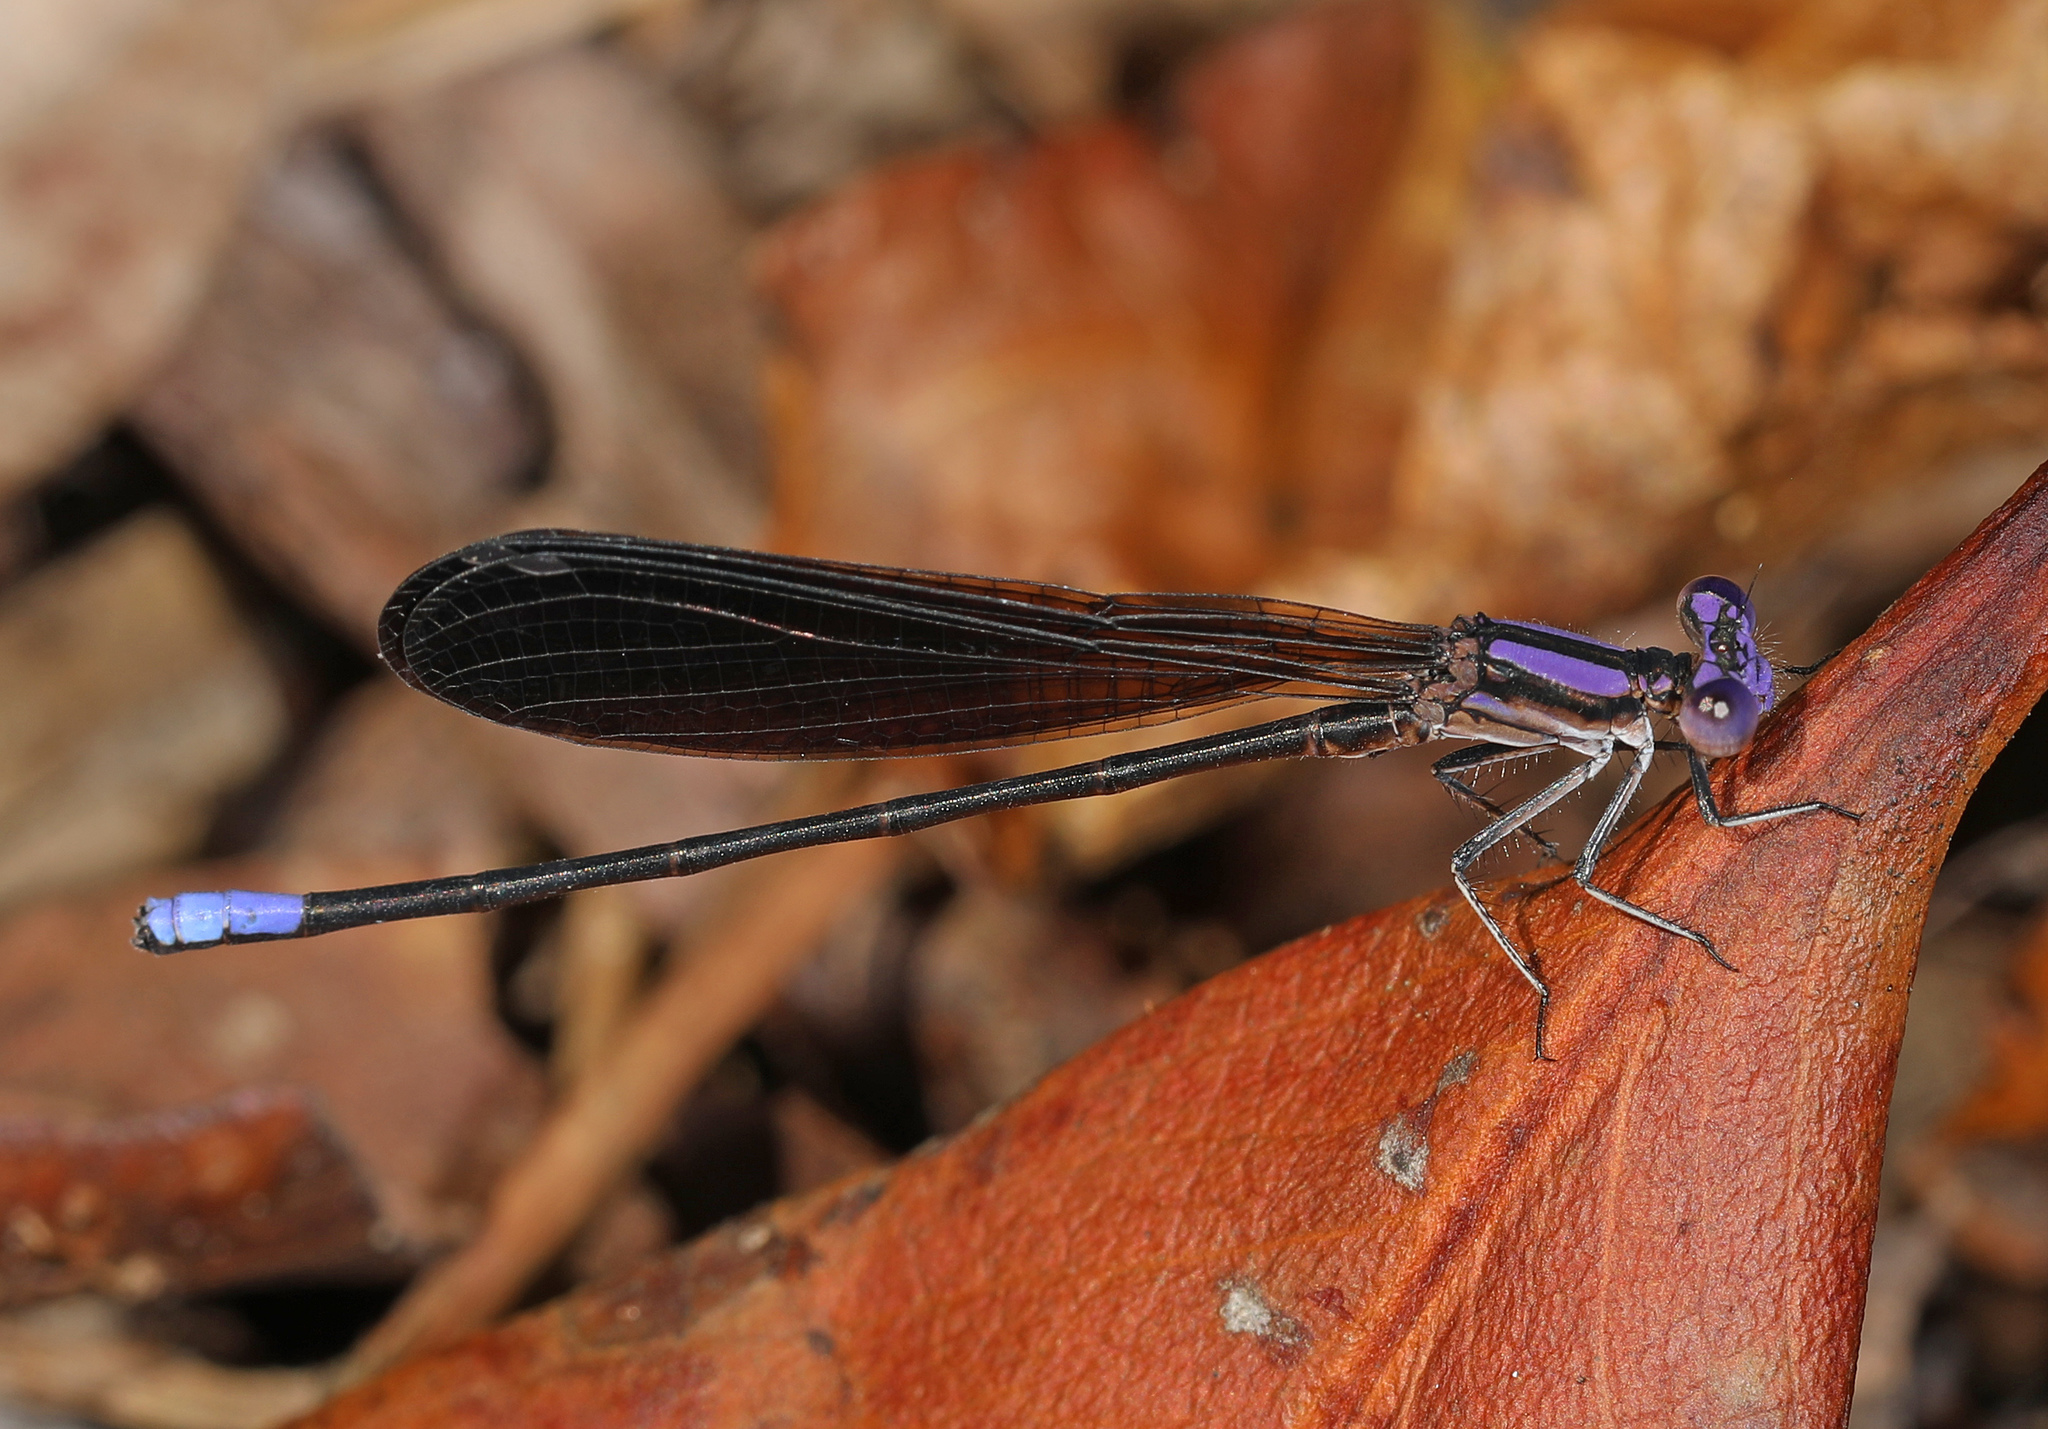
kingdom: Animalia
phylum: Arthropoda
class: Insecta
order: Odonata
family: Coenagrionidae
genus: Argia
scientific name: Argia fumipennis
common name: Variable dancer
